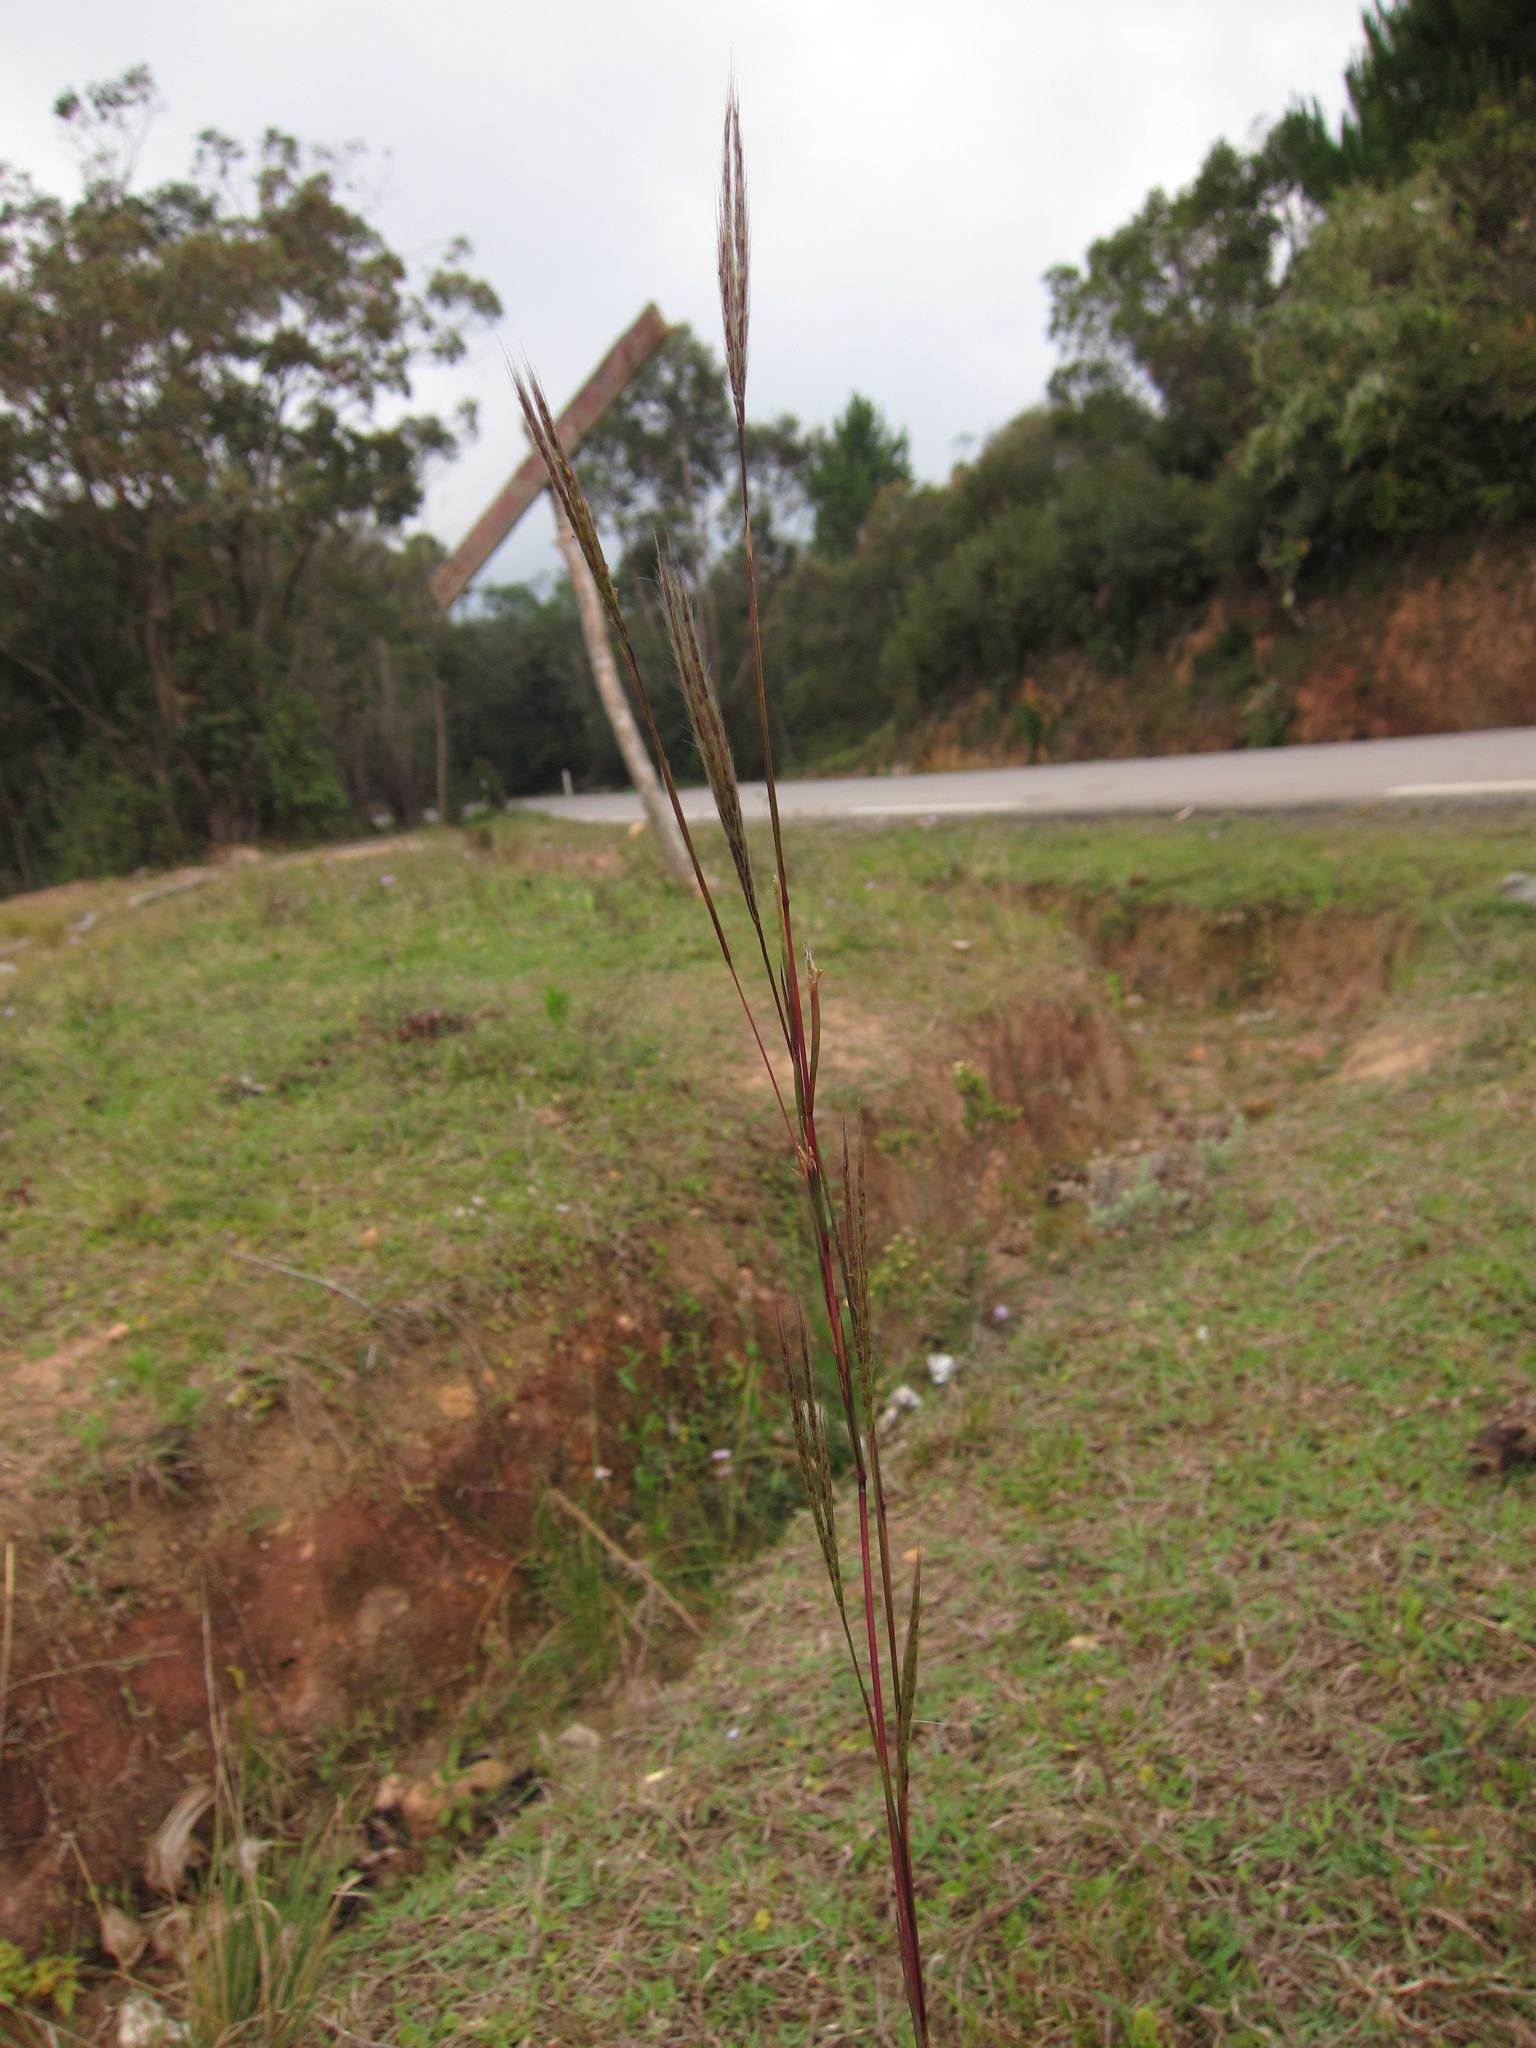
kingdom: Plantae
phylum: Tracheophyta
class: Liliopsida
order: Poales
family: Poaceae
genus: Andropogon
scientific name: Andropogon eucomus
